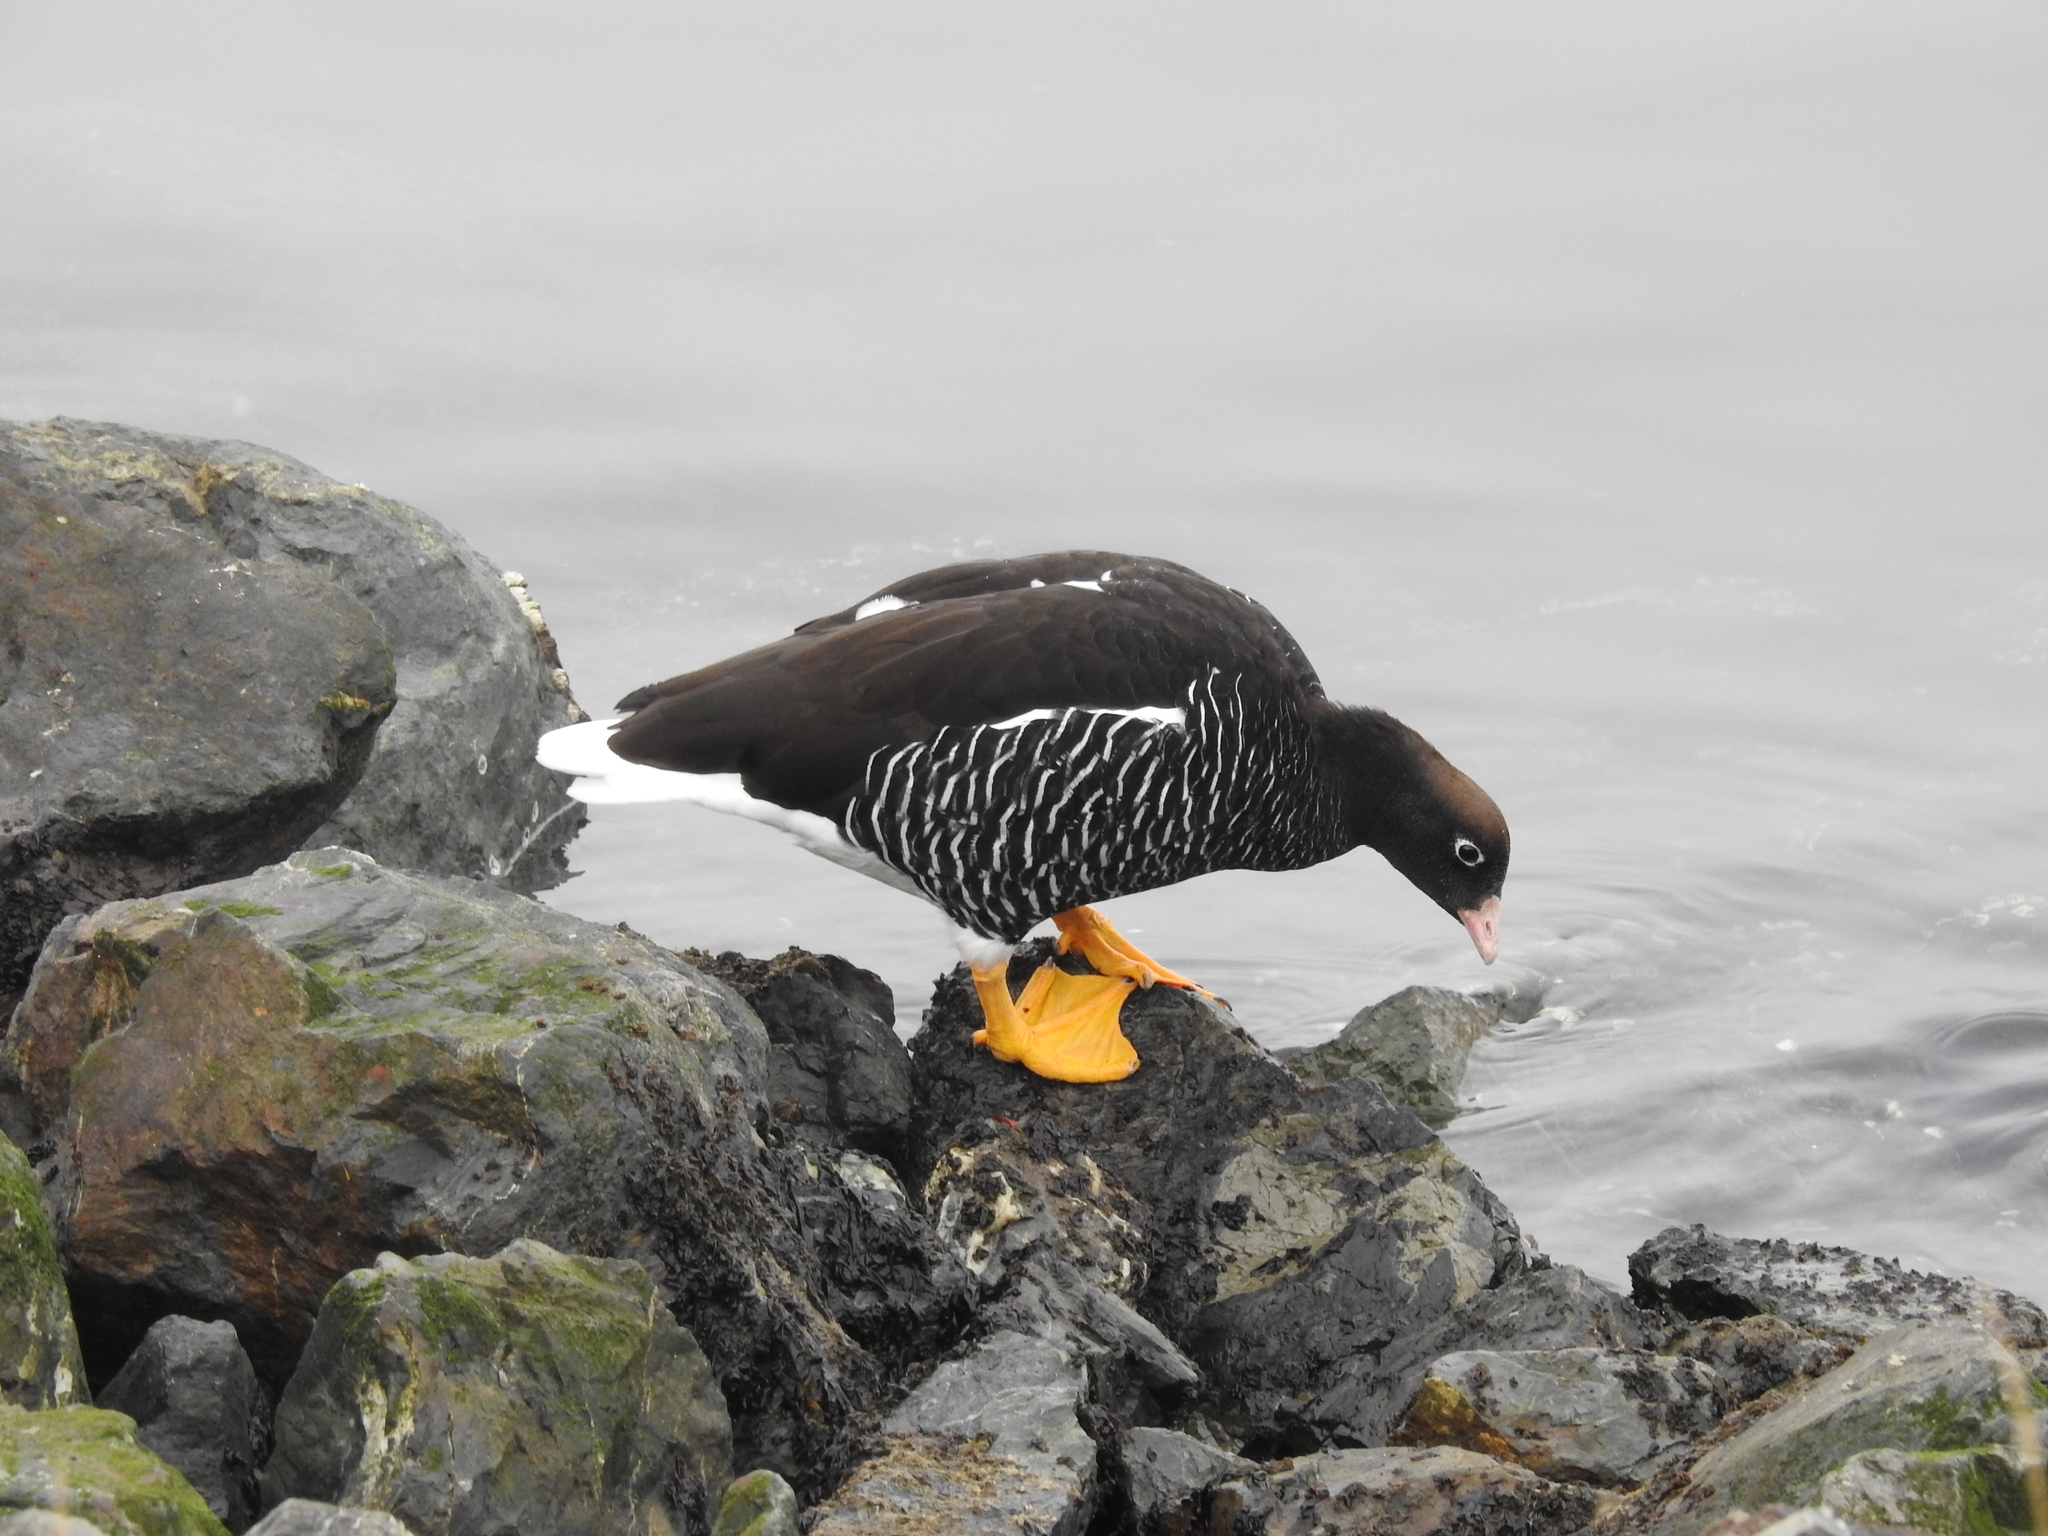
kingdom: Animalia
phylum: Chordata
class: Aves
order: Anseriformes
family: Anatidae
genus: Chloephaga
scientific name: Chloephaga hybrida
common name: Kelp goose
